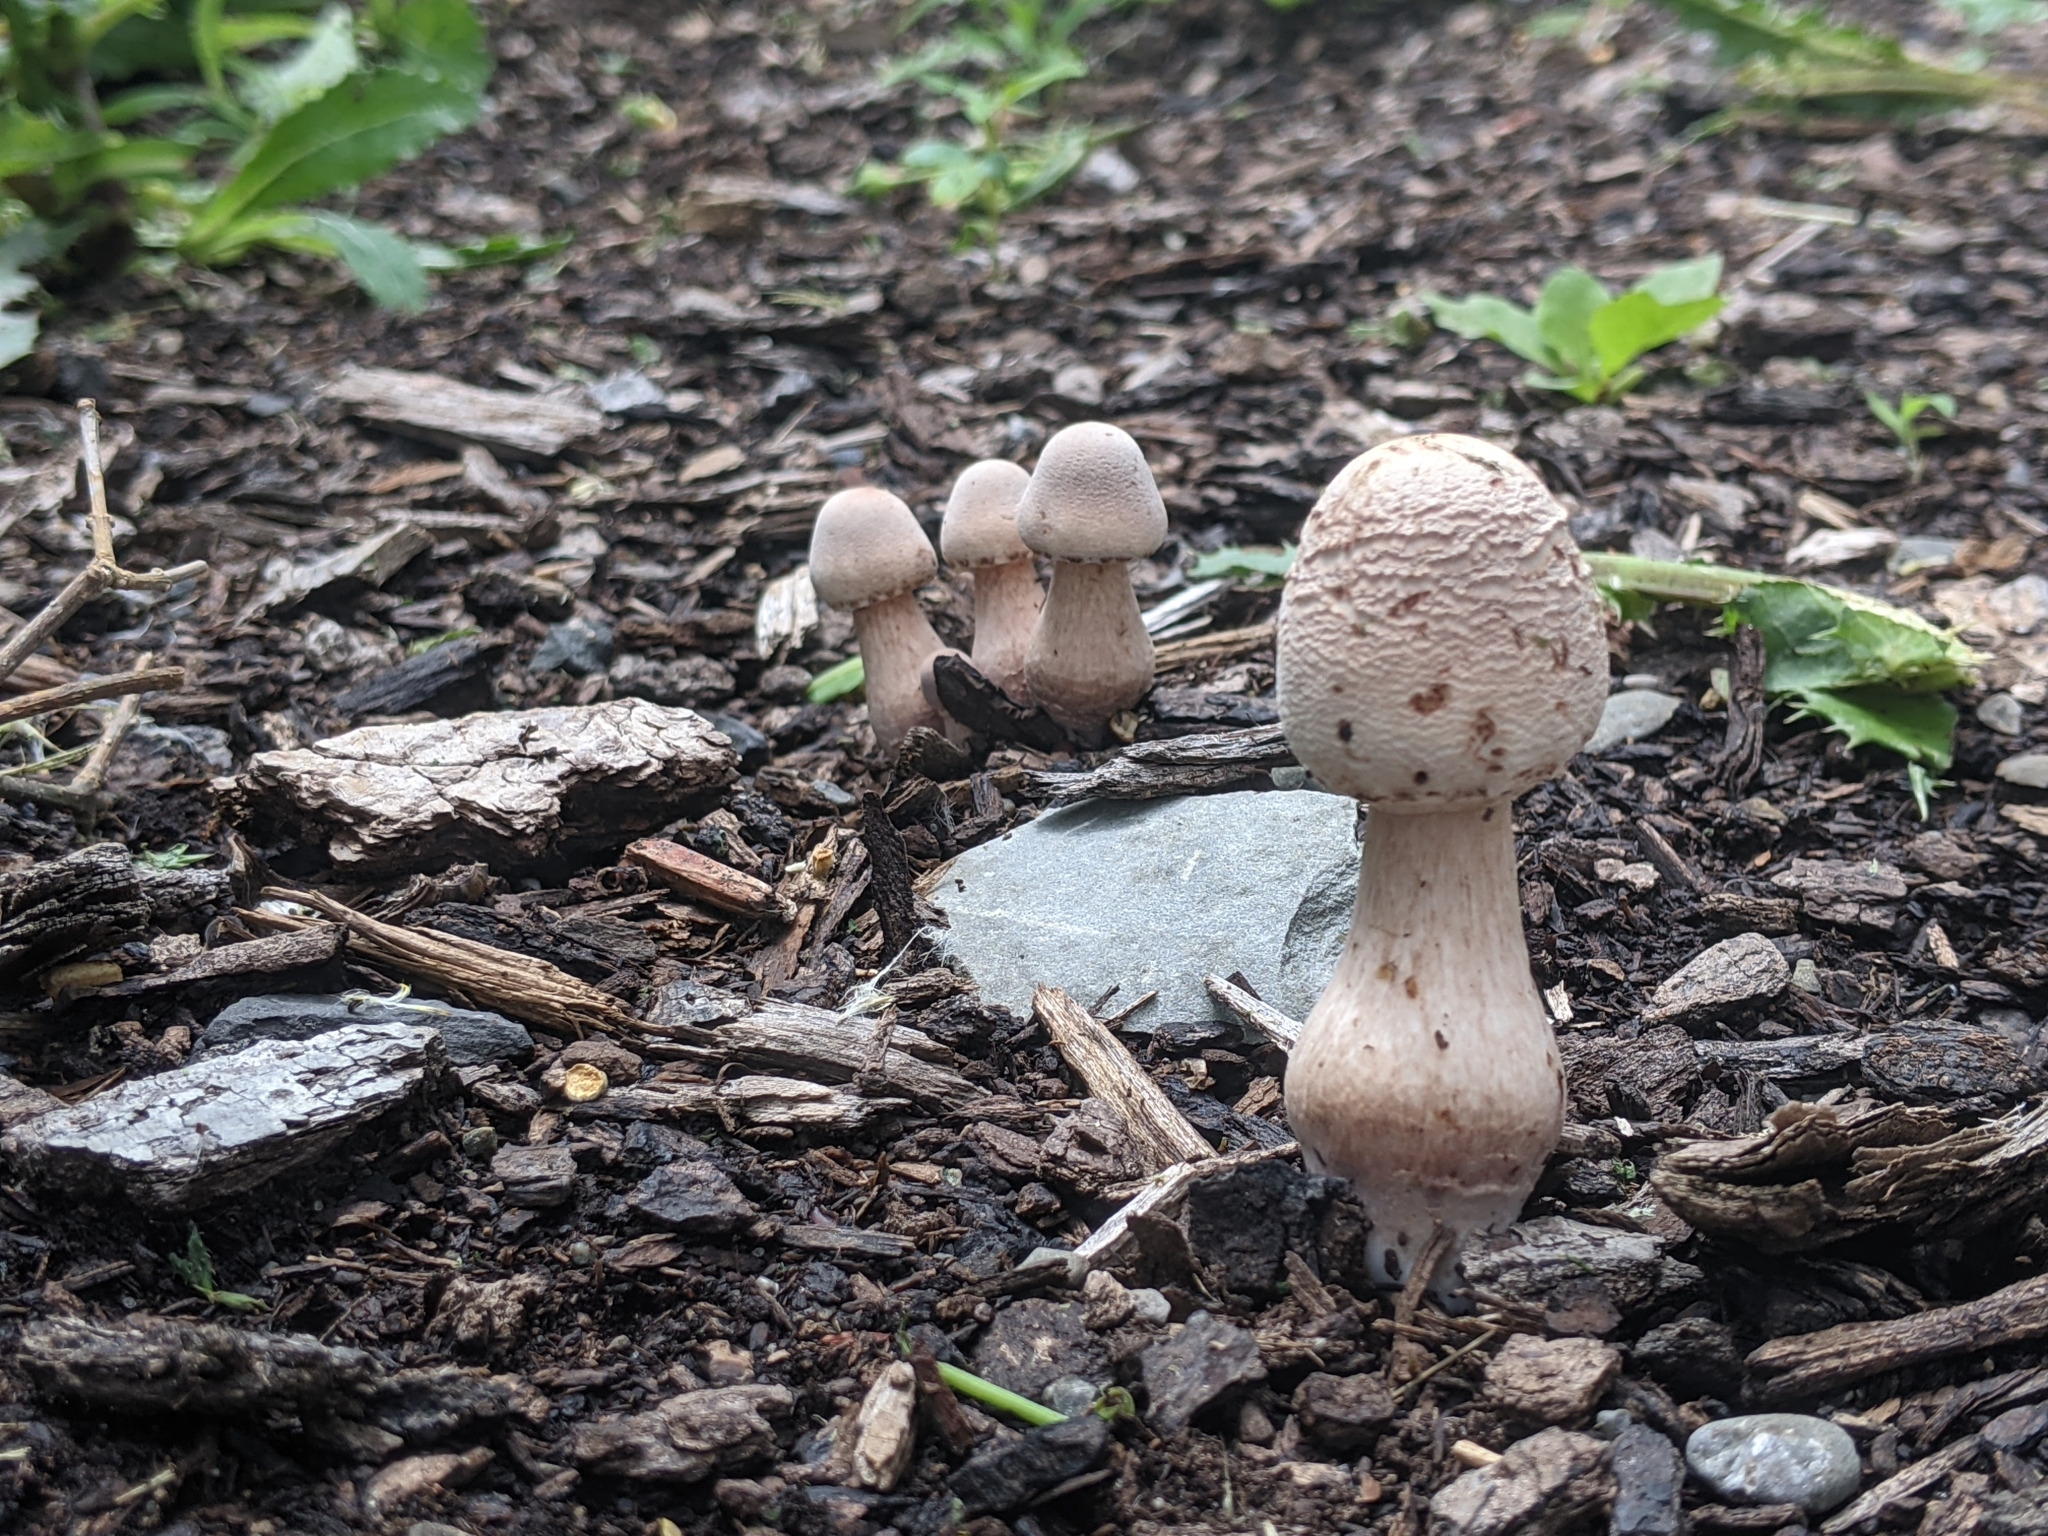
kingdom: Fungi
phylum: Basidiomycota
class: Agaricomycetes
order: Agaricales
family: Agaricaceae
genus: Leucoagaricus
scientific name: Leucoagaricus americanus
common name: Reddening lepiota
